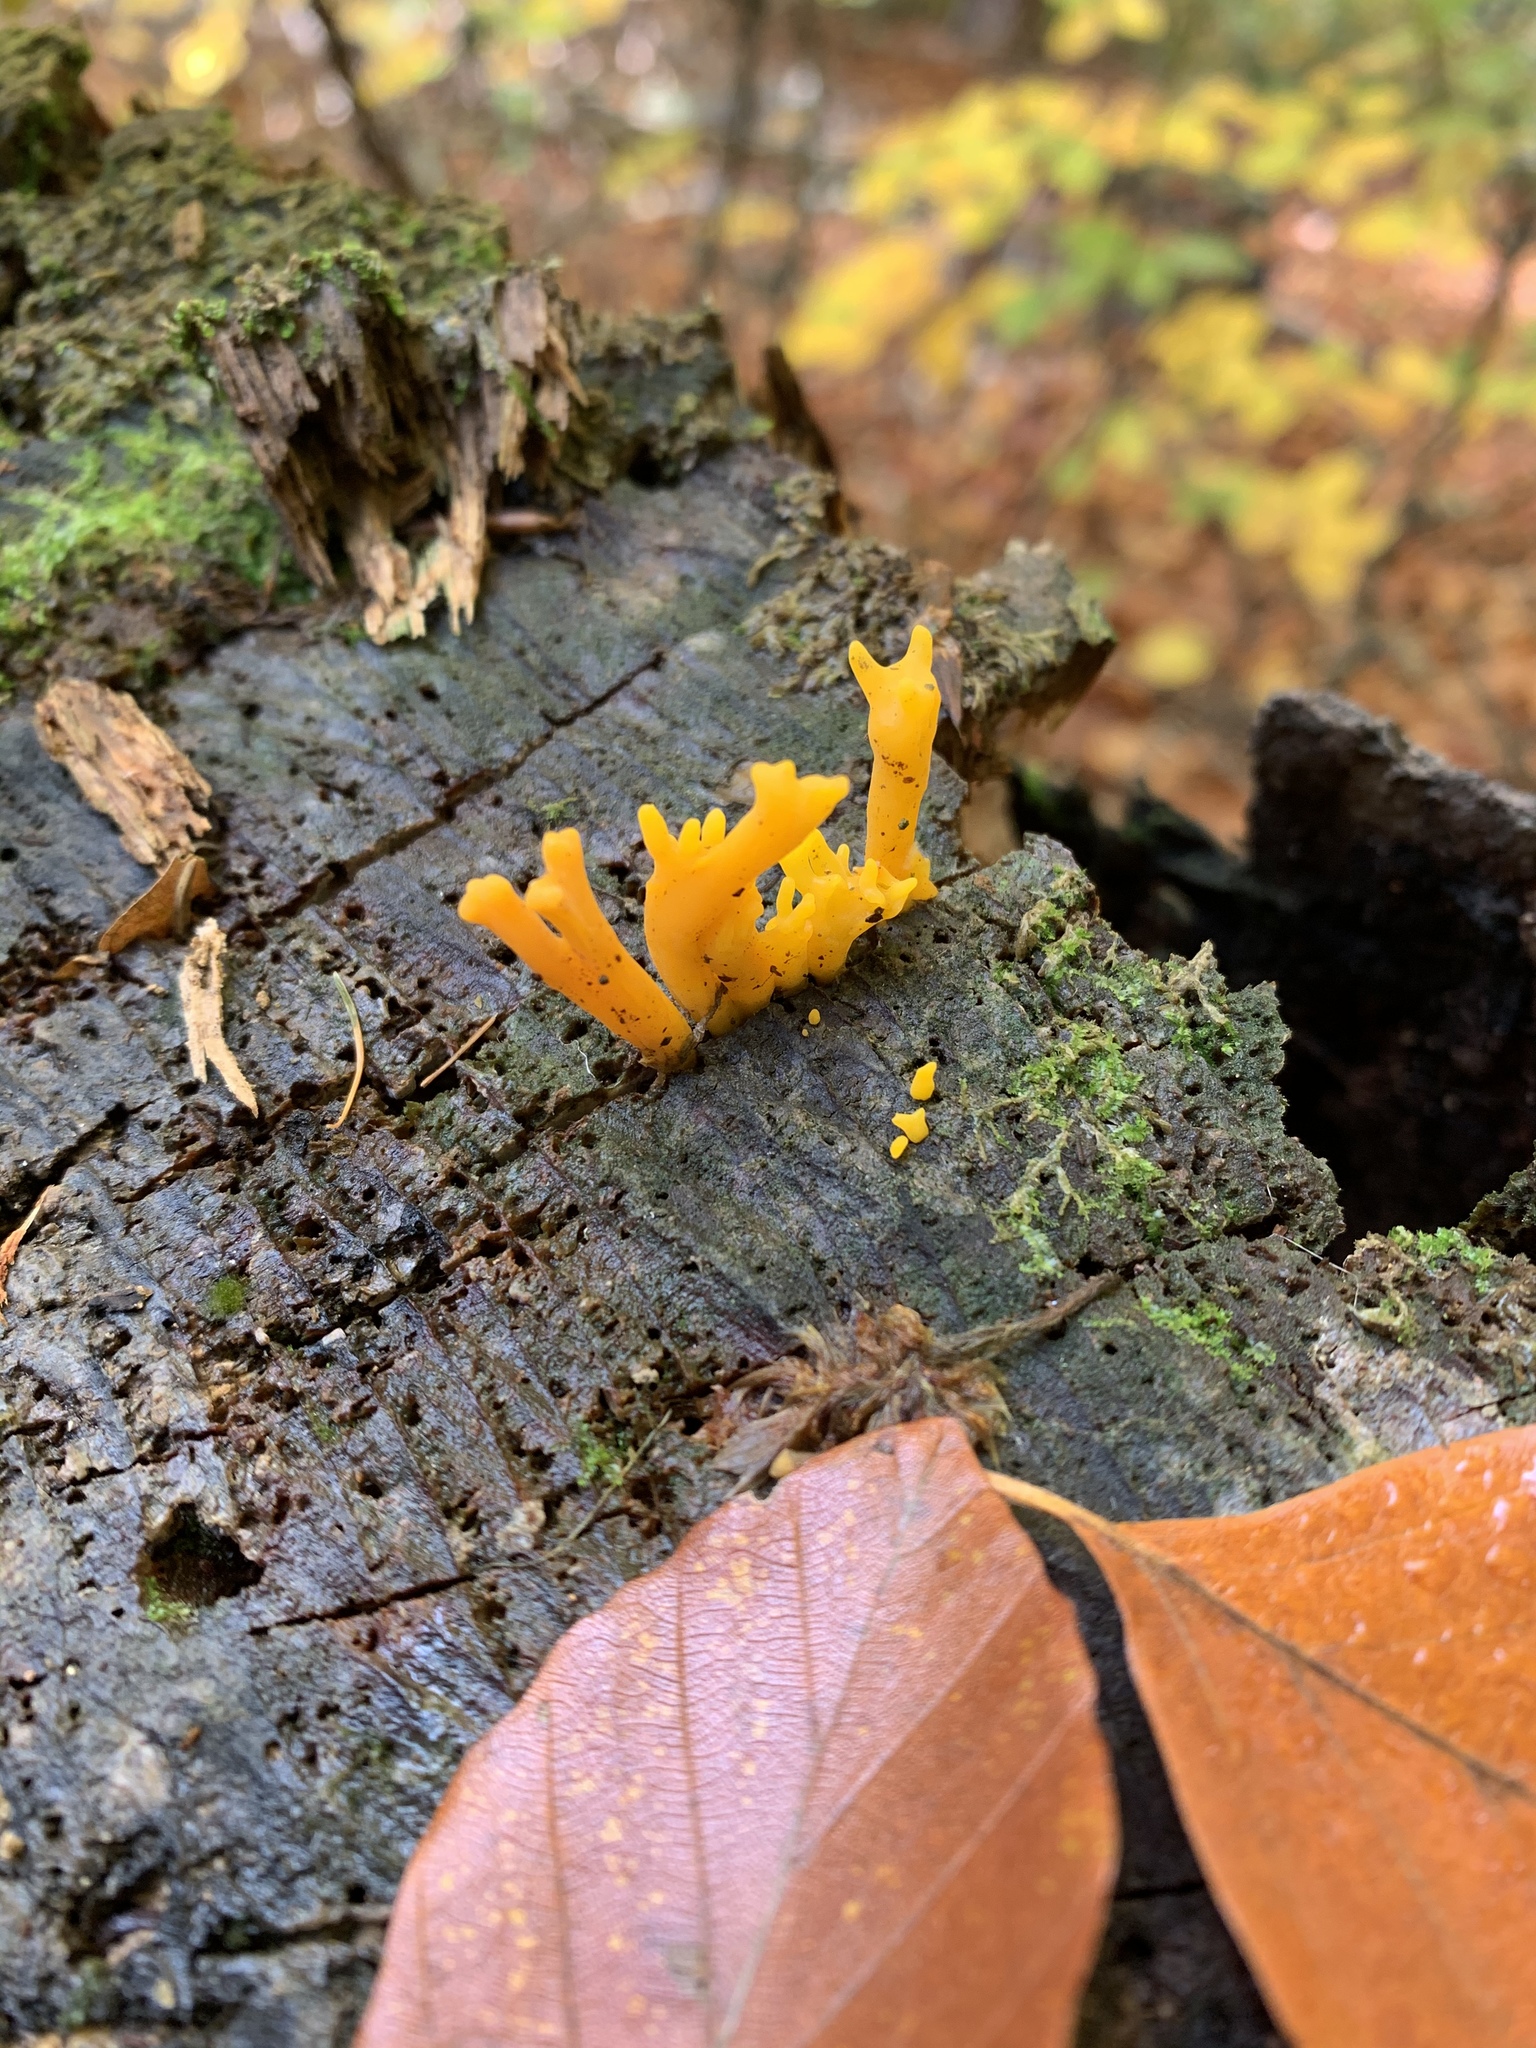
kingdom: Fungi
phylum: Basidiomycota
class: Dacrymycetes
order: Dacrymycetales
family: Dacrymycetaceae
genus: Calocera
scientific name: Calocera viscosa
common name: Yellow stagshorn
